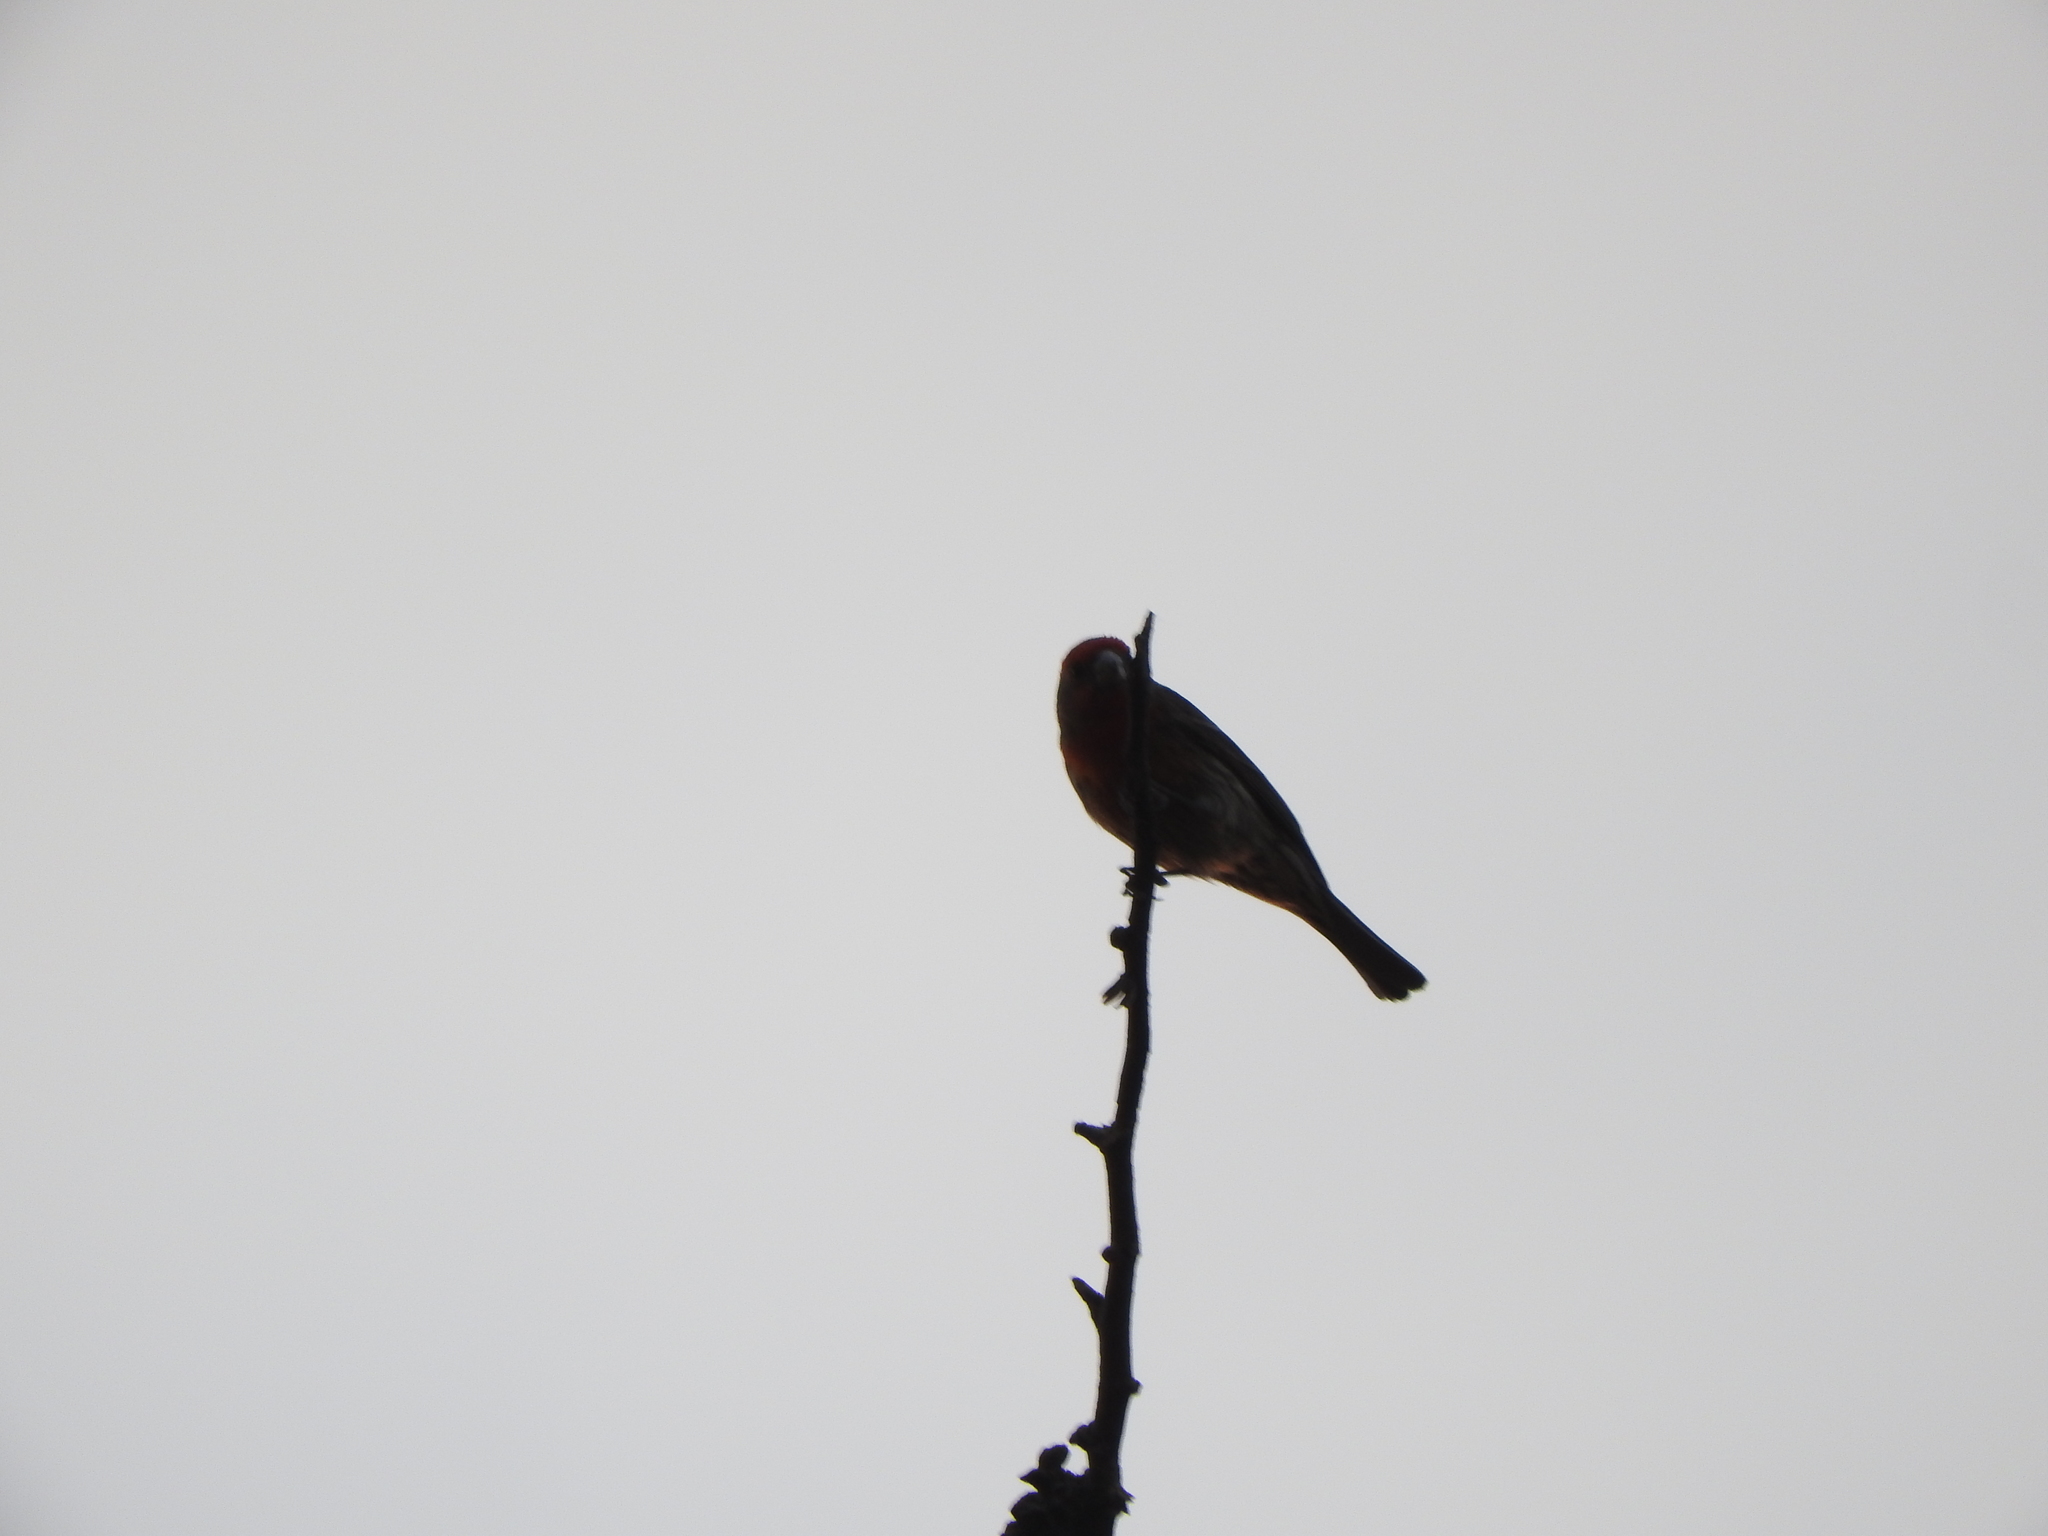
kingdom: Animalia
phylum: Chordata
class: Aves
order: Passeriformes
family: Fringillidae
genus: Haemorhous
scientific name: Haemorhous mexicanus
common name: House finch
